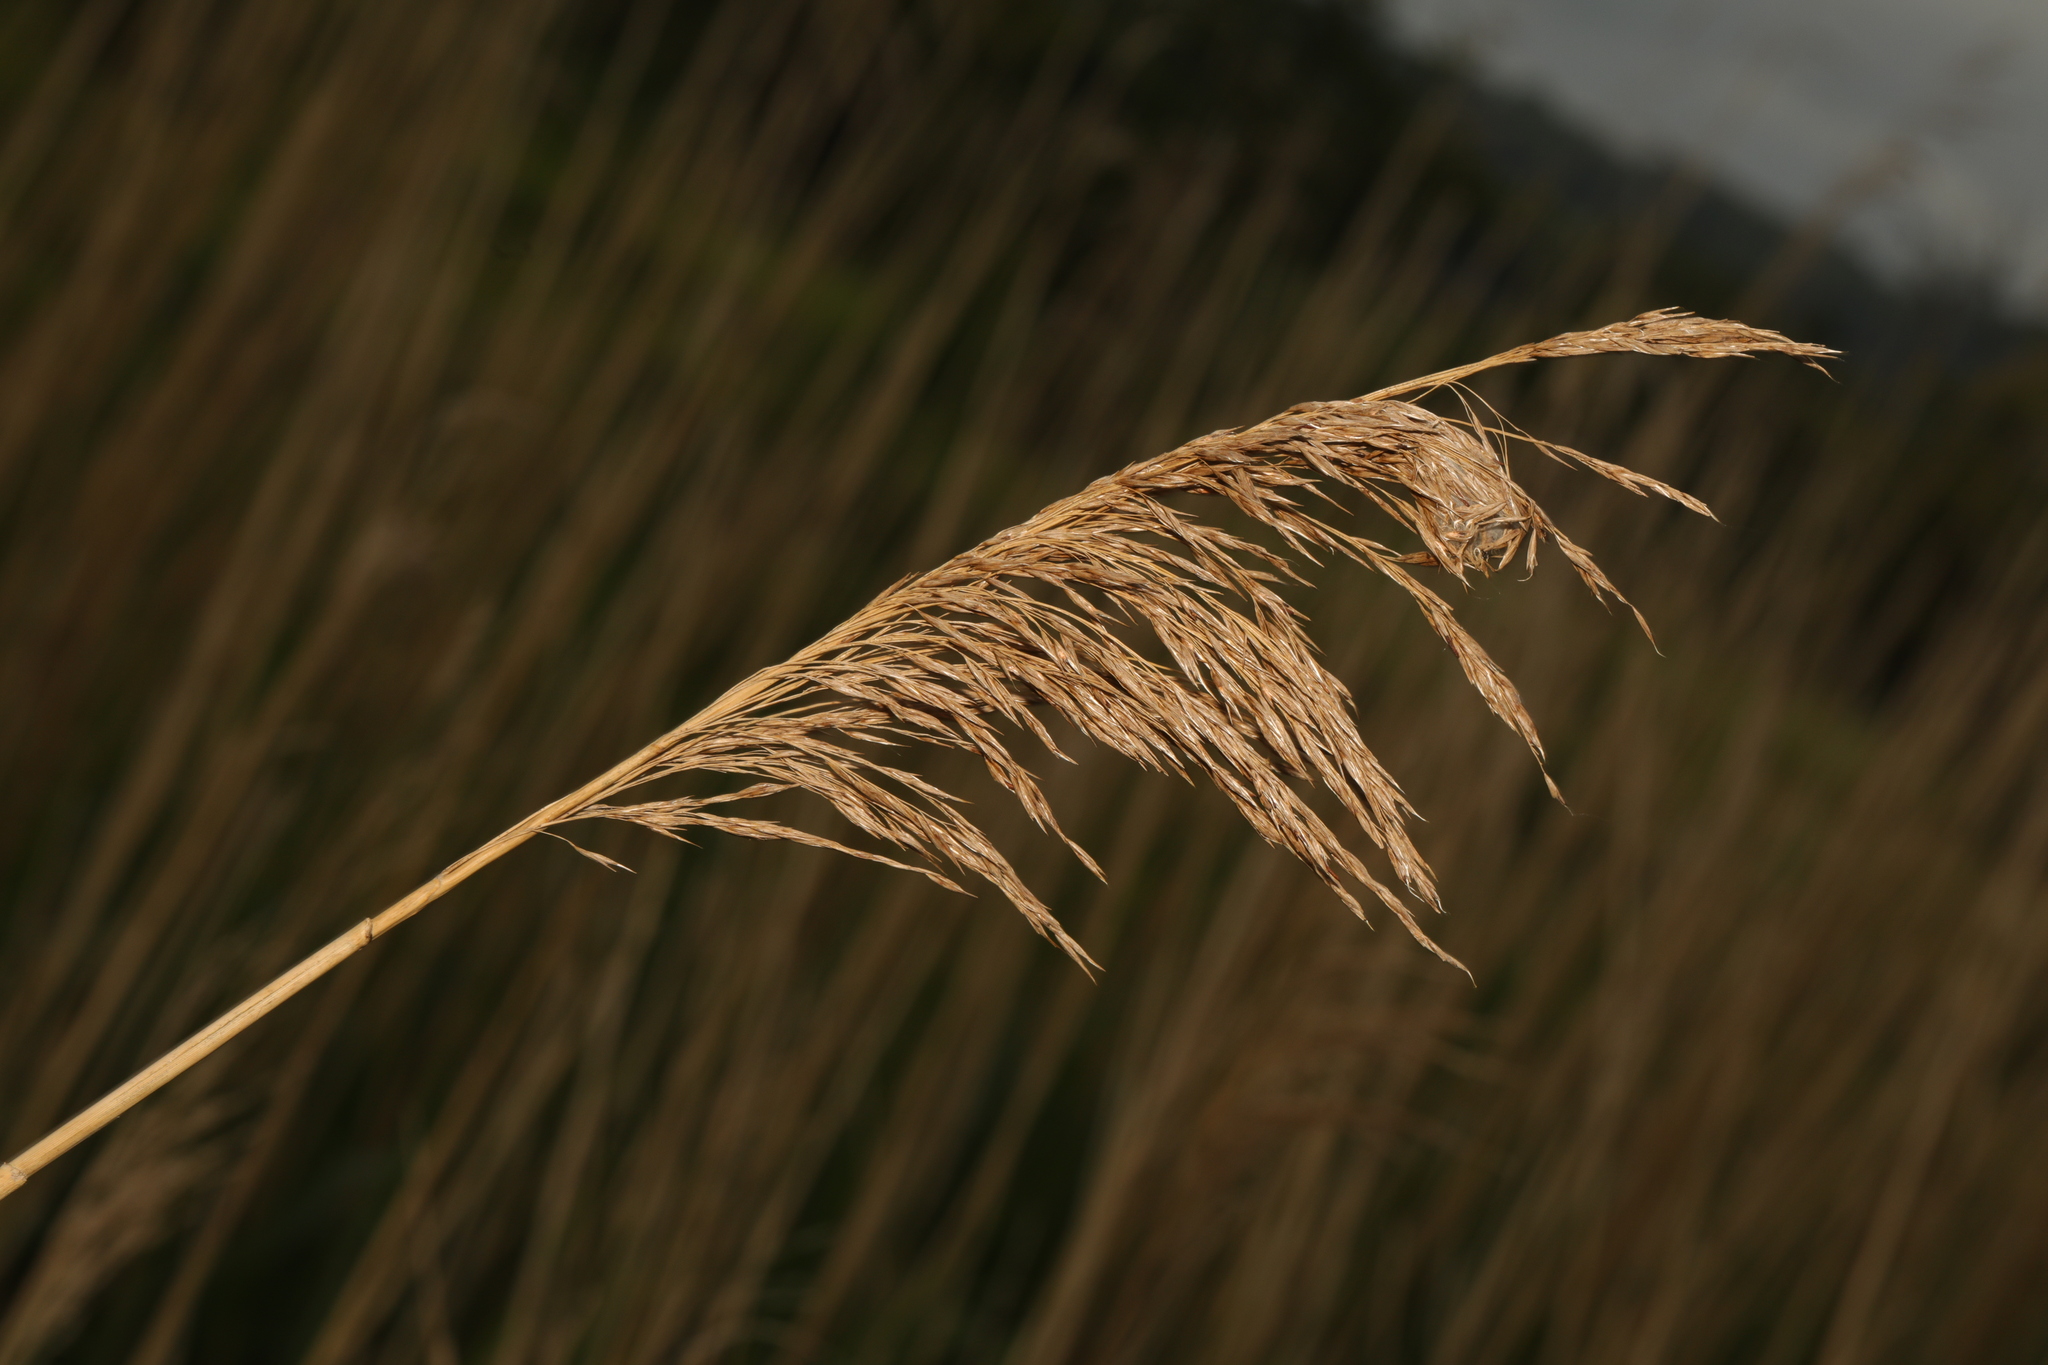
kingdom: Plantae
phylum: Tracheophyta
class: Liliopsida
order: Poales
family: Poaceae
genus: Phragmites
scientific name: Phragmites australis
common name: Common reed
